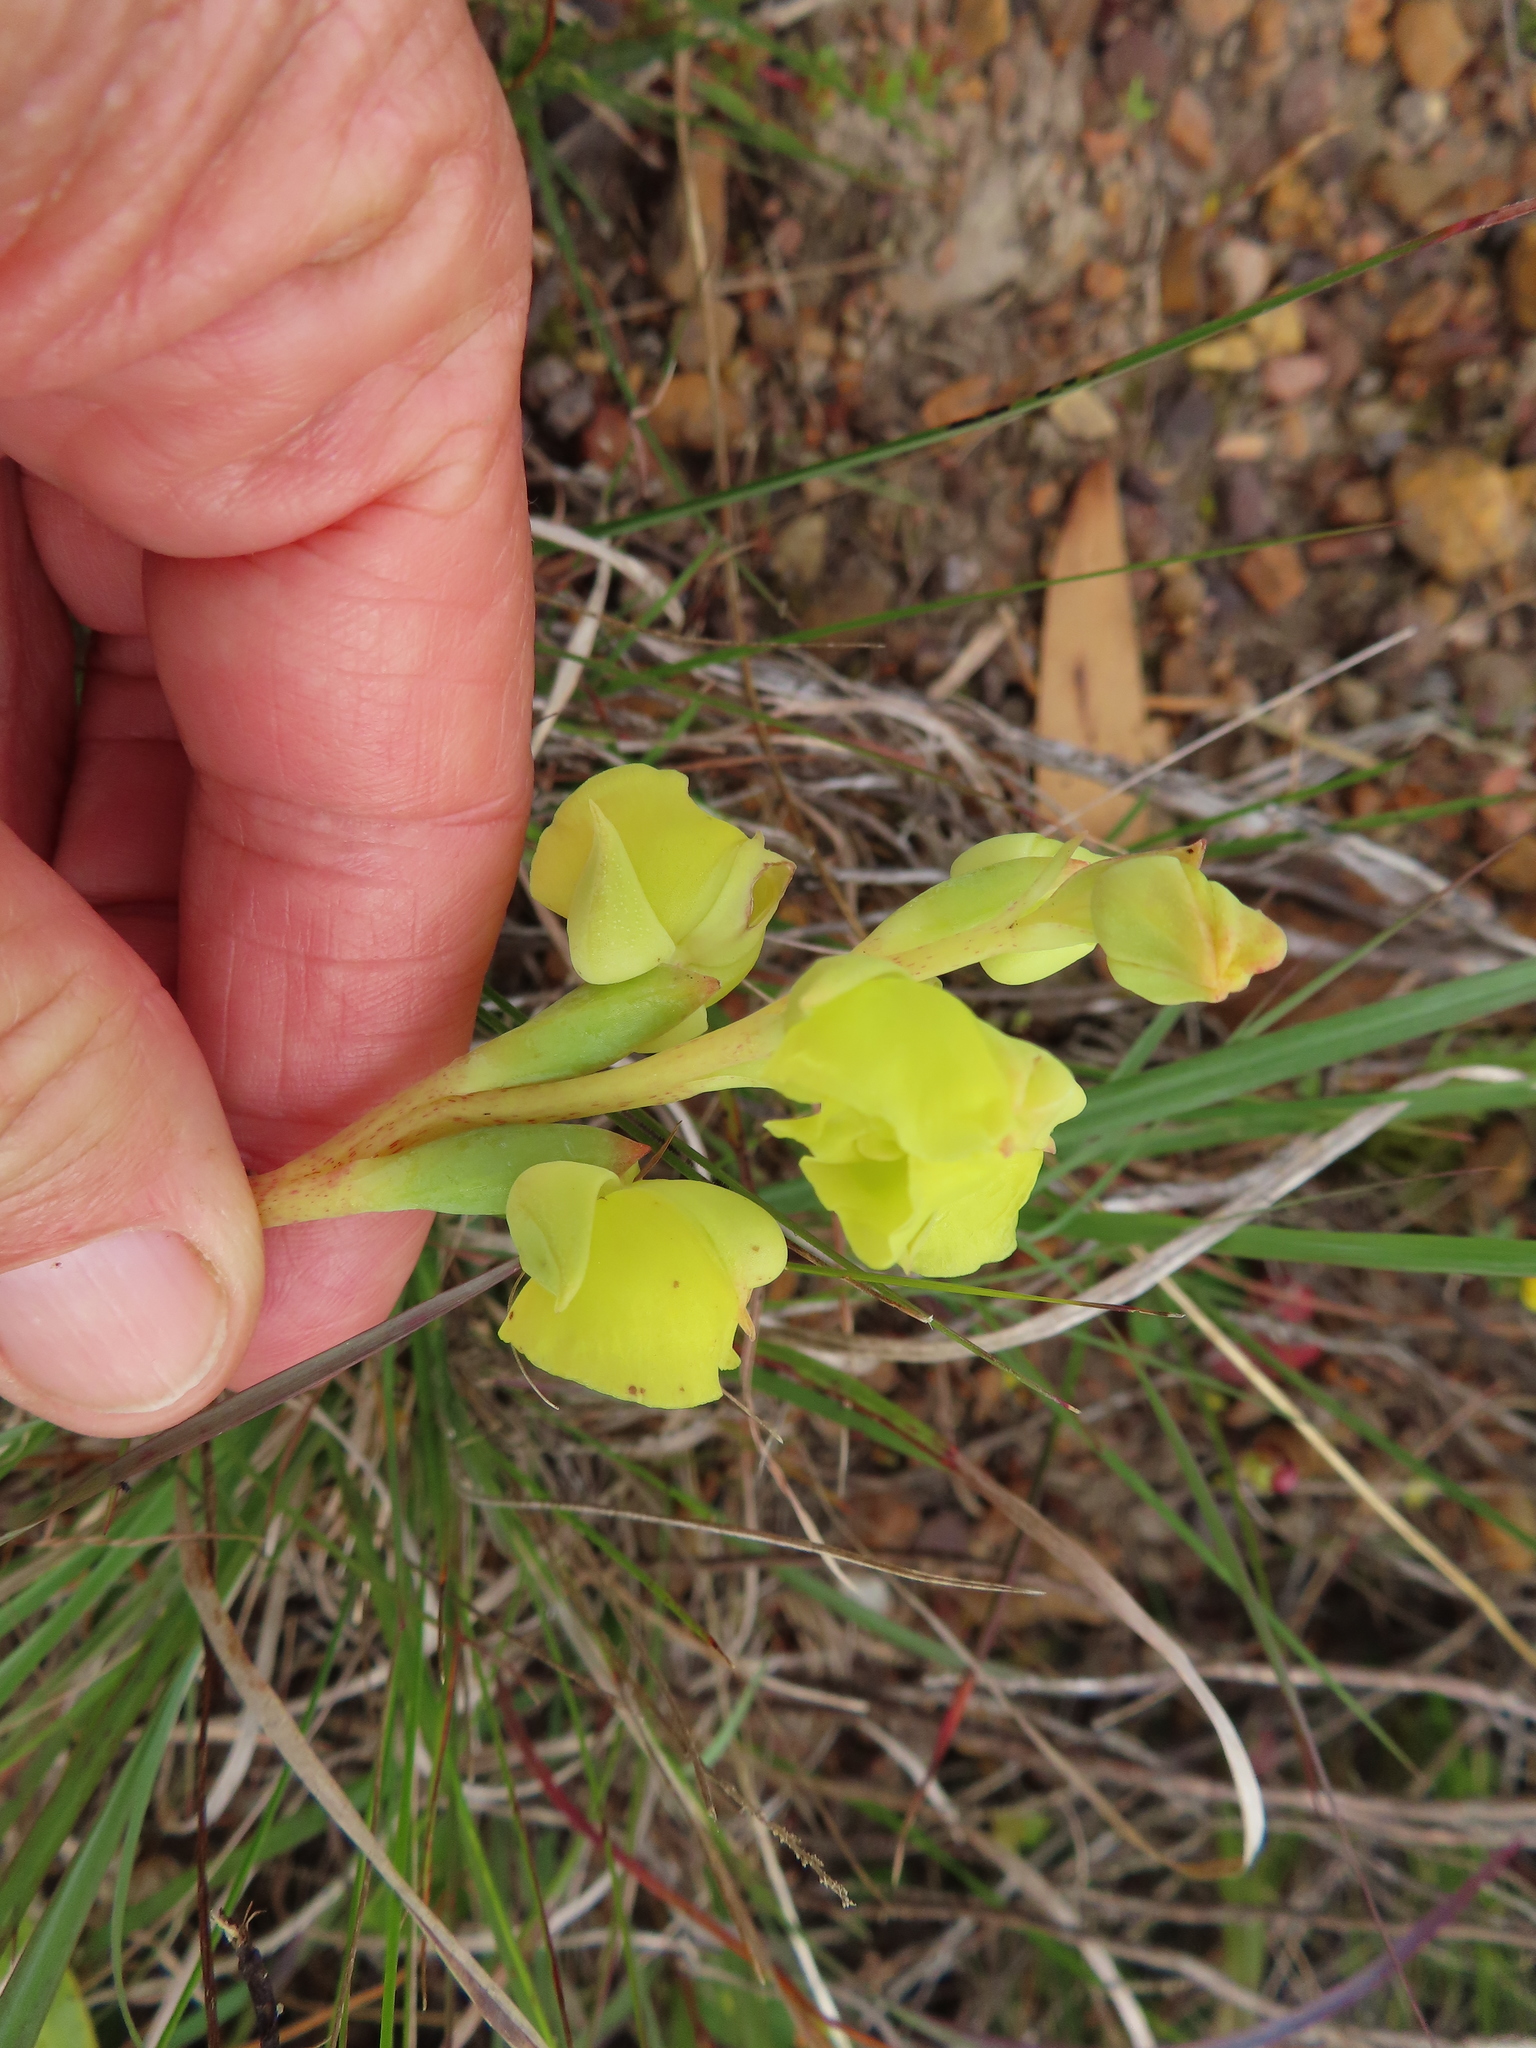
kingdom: Plantae
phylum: Tracheophyta
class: Liliopsida
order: Asparagales
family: Orchidaceae
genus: Pterygodium
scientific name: Pterygodium catholicum
